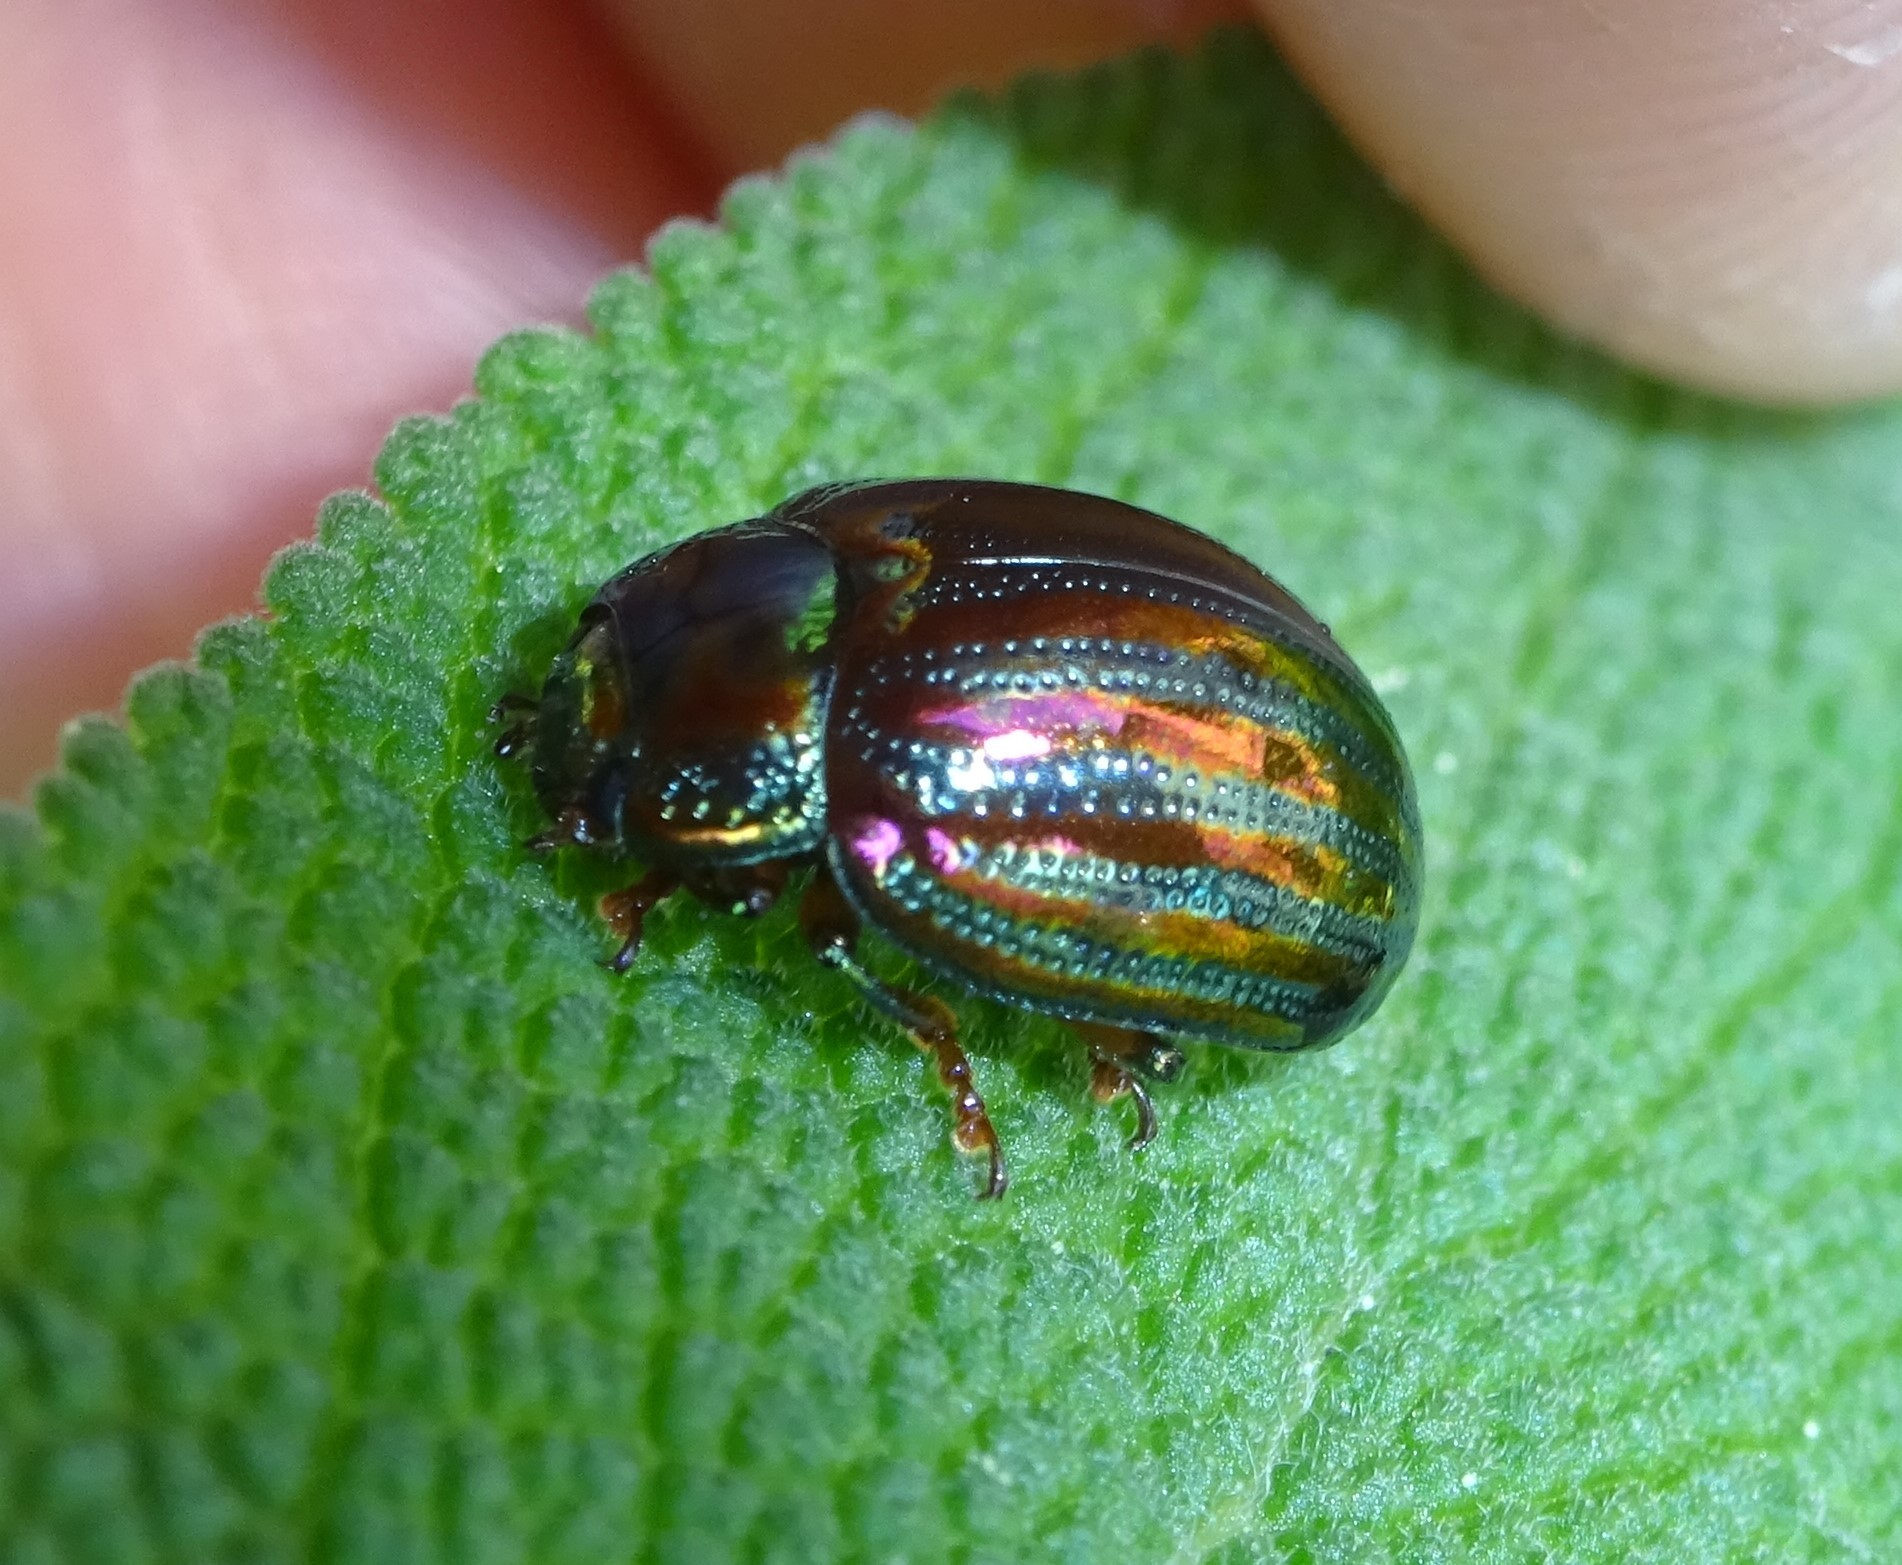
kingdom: Animalia
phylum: Arthropoda
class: Insecta
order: Coleoptera
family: Chrysomelidae
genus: Chrysolina
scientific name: Chrysolina americana
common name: Rosemary beetle
